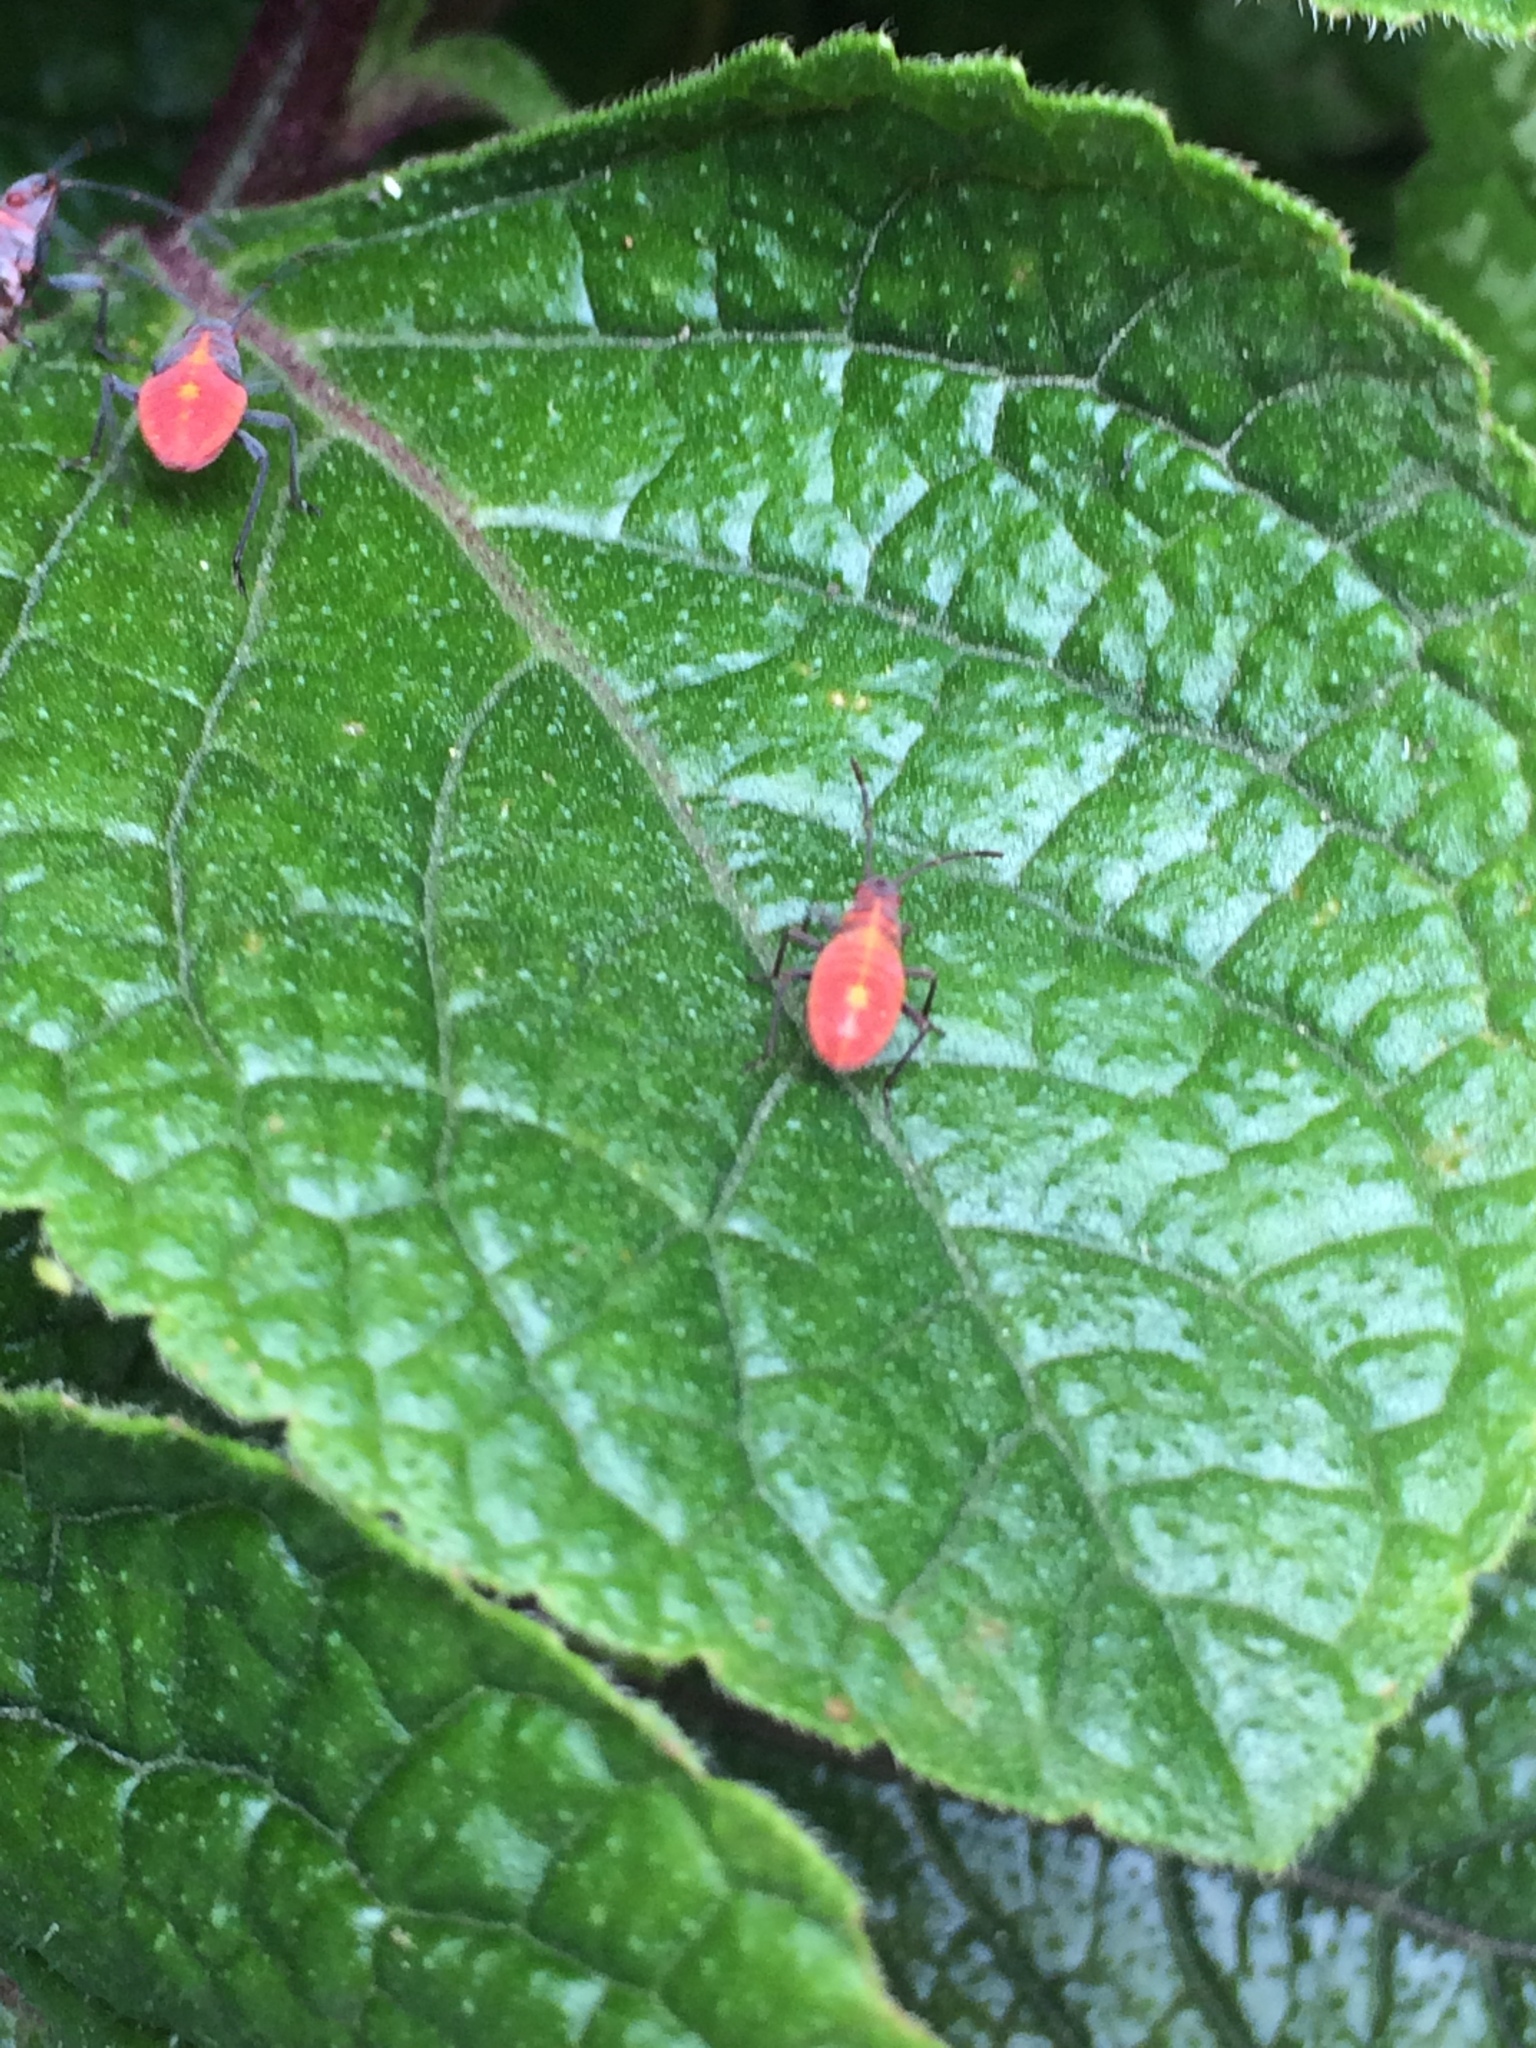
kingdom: Animalia
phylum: Arthropoda
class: Insecta
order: Hemiptera
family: Rhopalidae
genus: Boisea
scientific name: Boisea trivittata
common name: Boxelder bug
